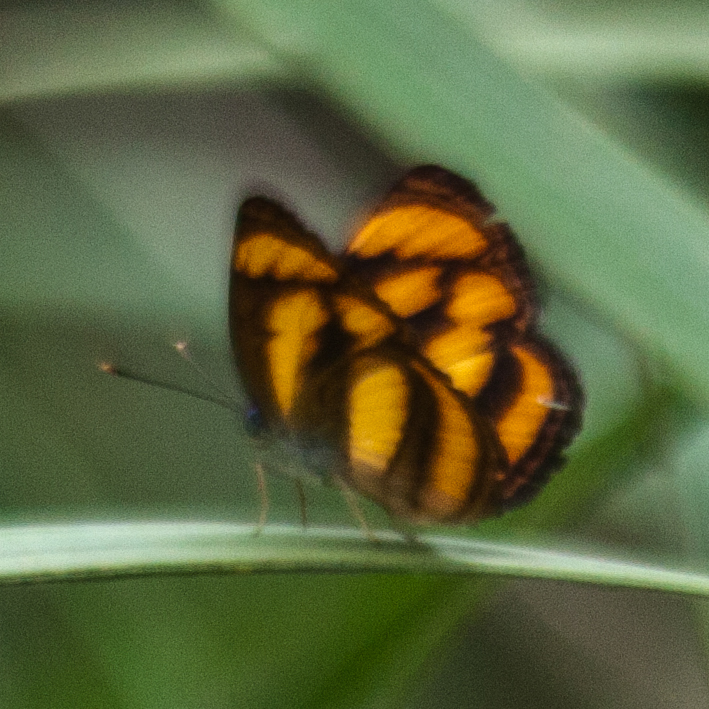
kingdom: Animalia
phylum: Arthropoda
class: Insecta
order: Lepidoptera
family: Nymphalidae
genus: Pantoporia
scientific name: Pantoporia paraka
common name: Perak lascar
